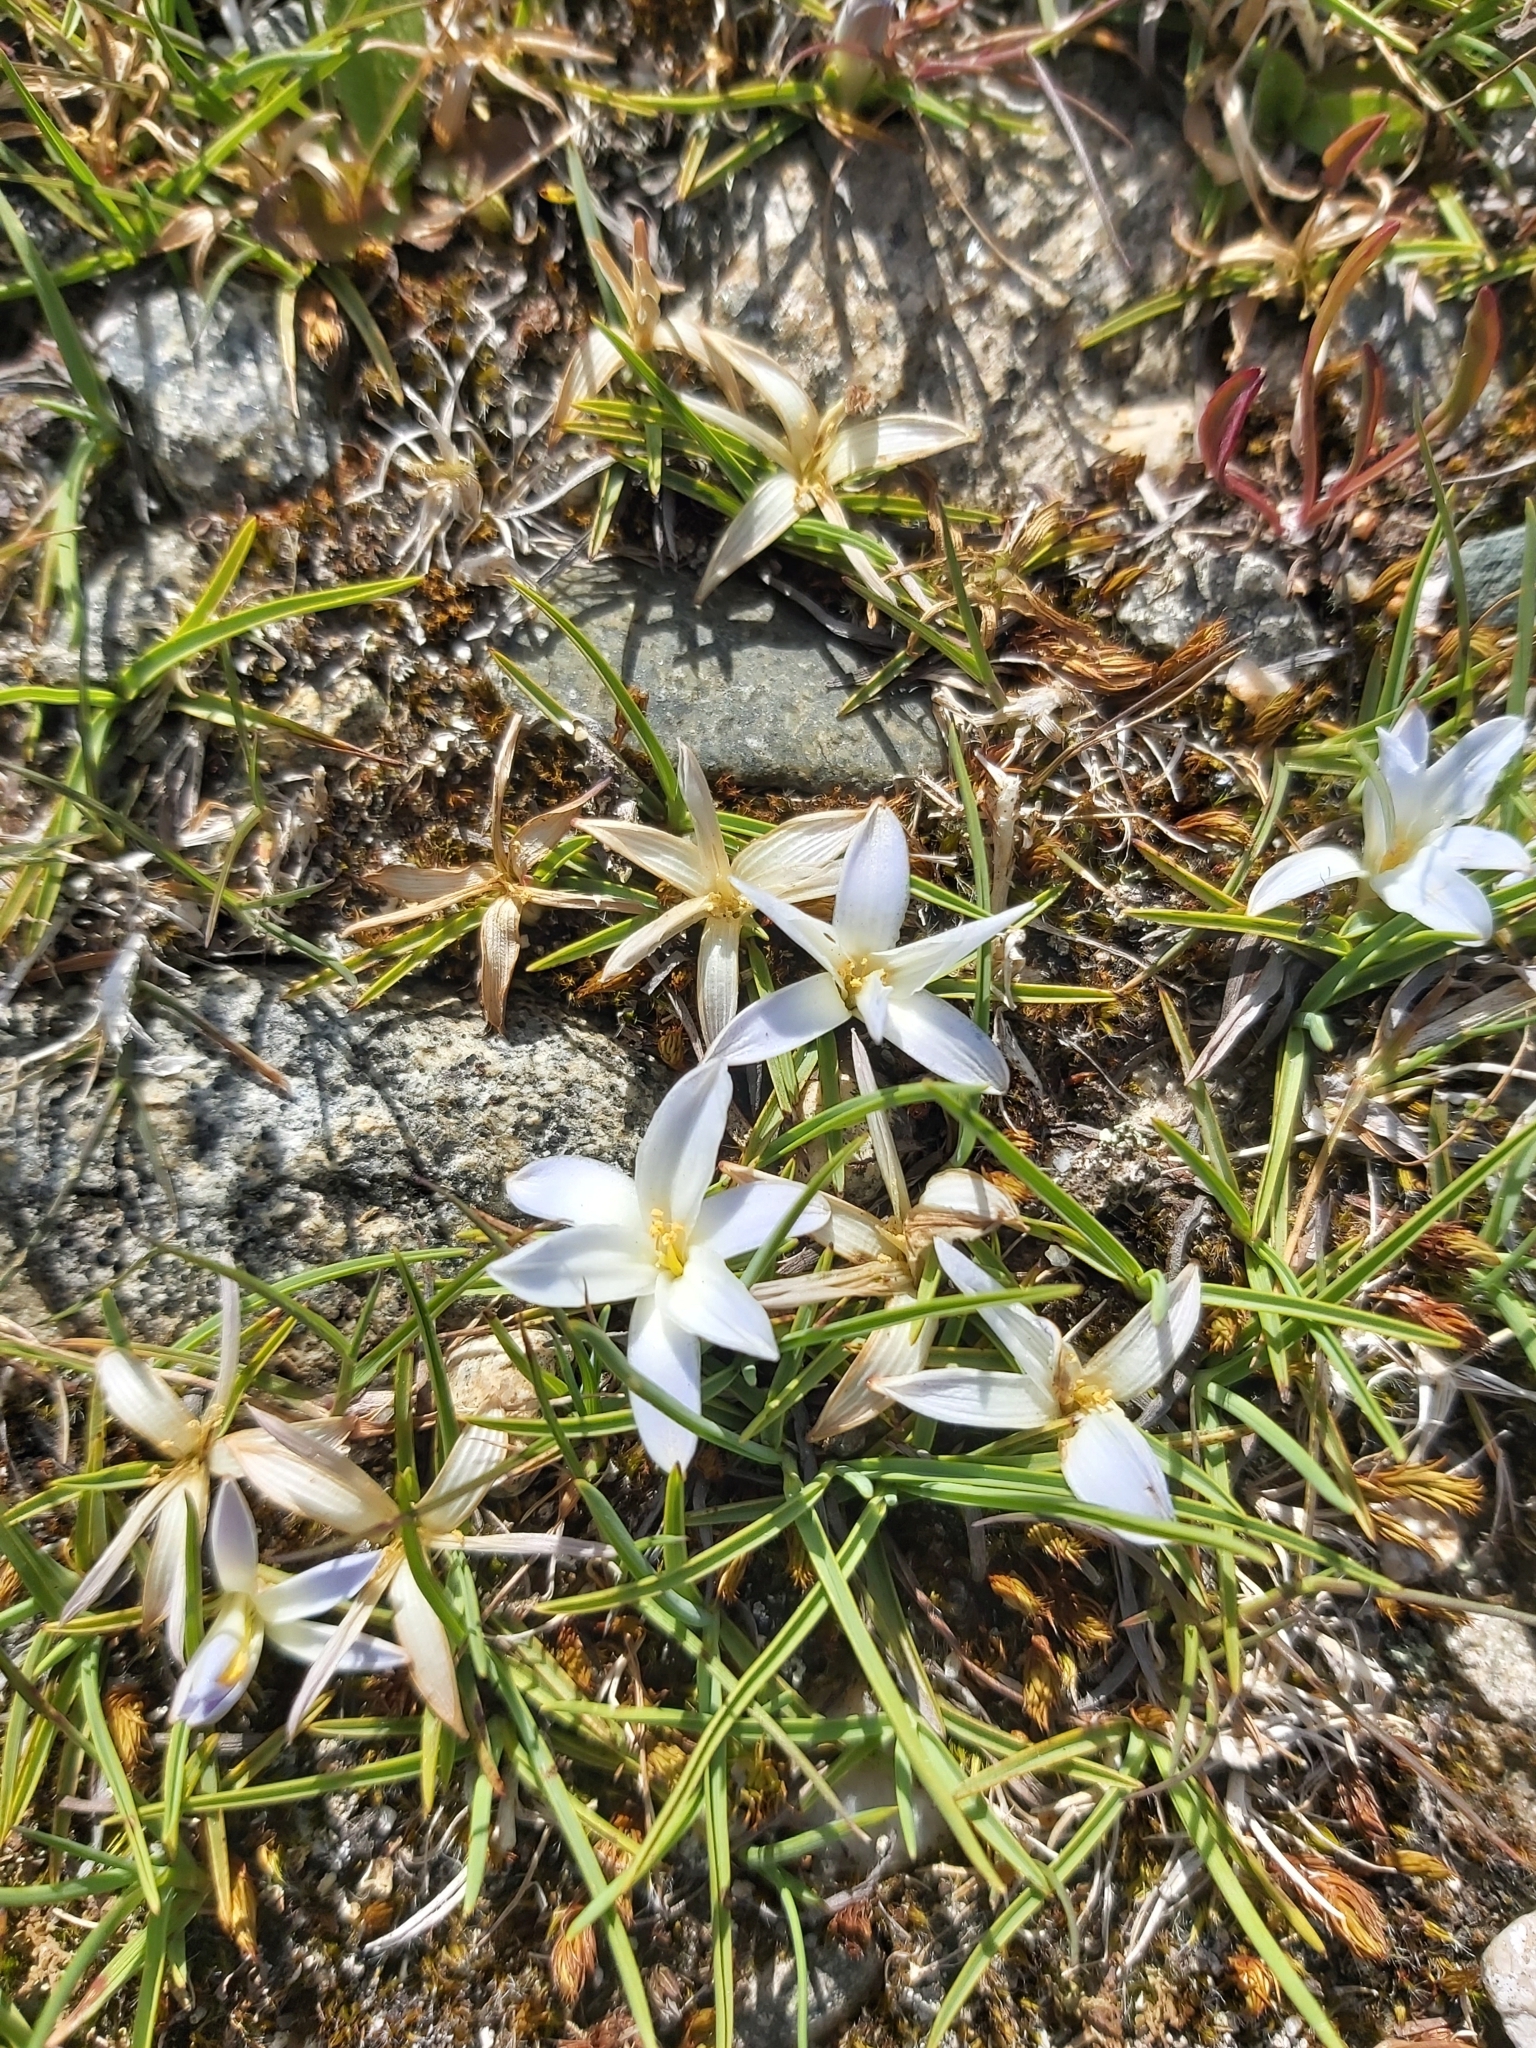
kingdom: Plantae
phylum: Tracheophyta
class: Liliopsida
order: Asparagales
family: Asphodelaceae
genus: Herpolirion
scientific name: Herpolirion novae-zelandiae
